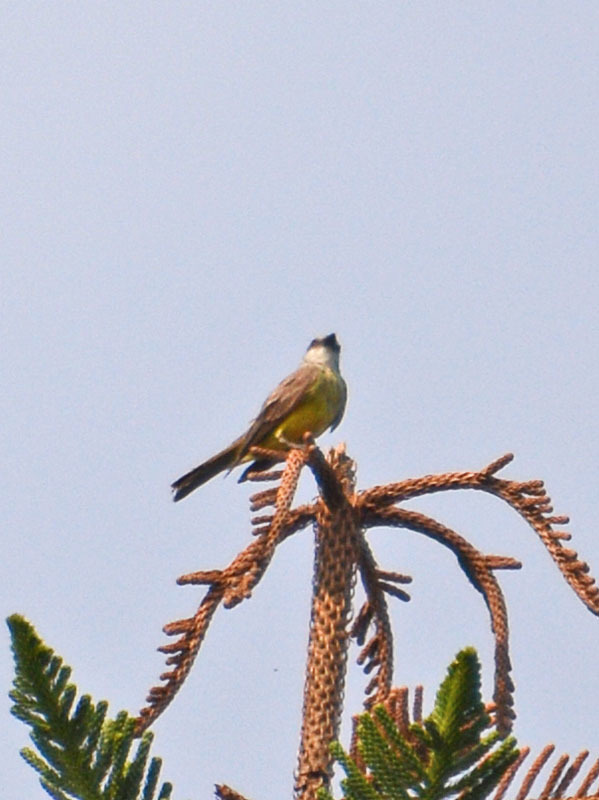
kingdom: Animalia
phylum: Chordata
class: Aves
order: Passeriformes
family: Tyrannidae
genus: Tyrannus
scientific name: Tyrannus melancholicus
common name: Tropical kingbird
